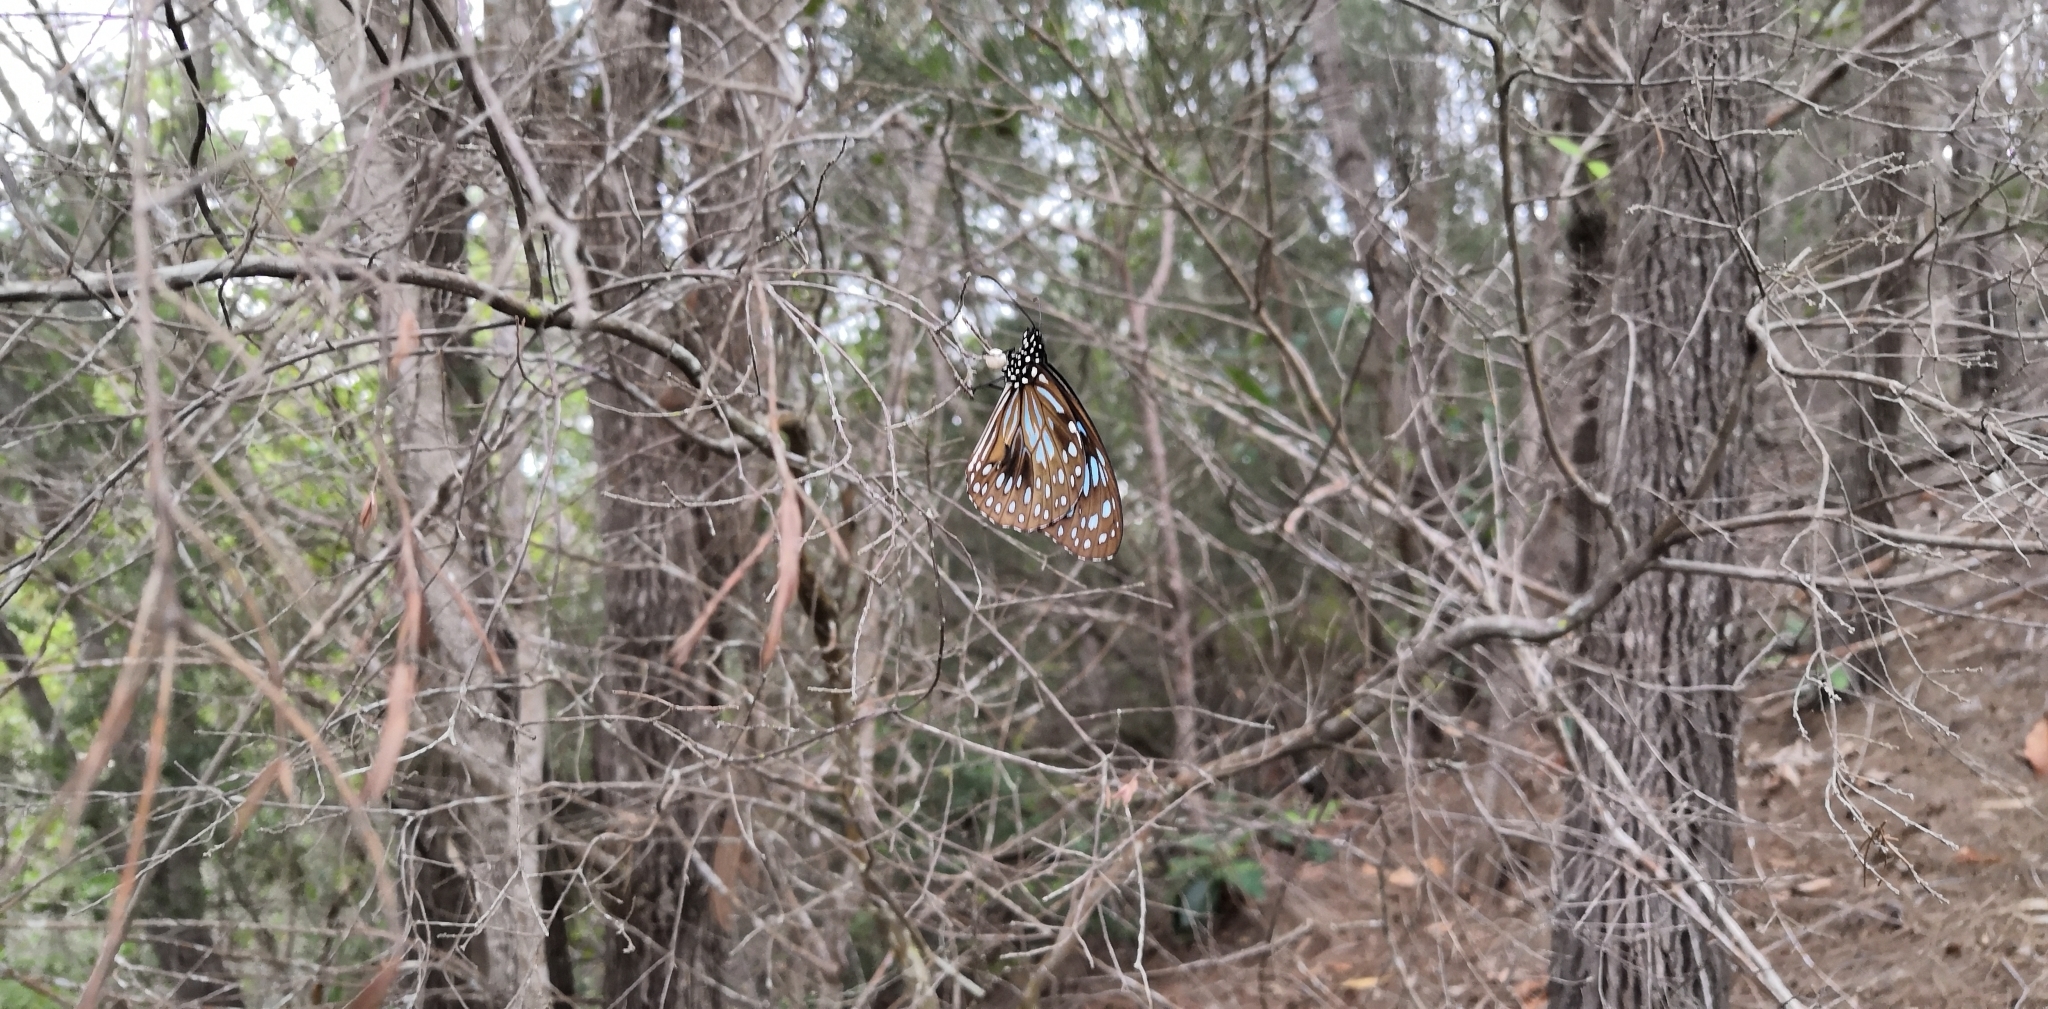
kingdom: Animalia
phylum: Arthropoda
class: Insecta
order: Lepidoptera
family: Nymphalidae
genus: Tirumala
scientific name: Tirumala hamata
